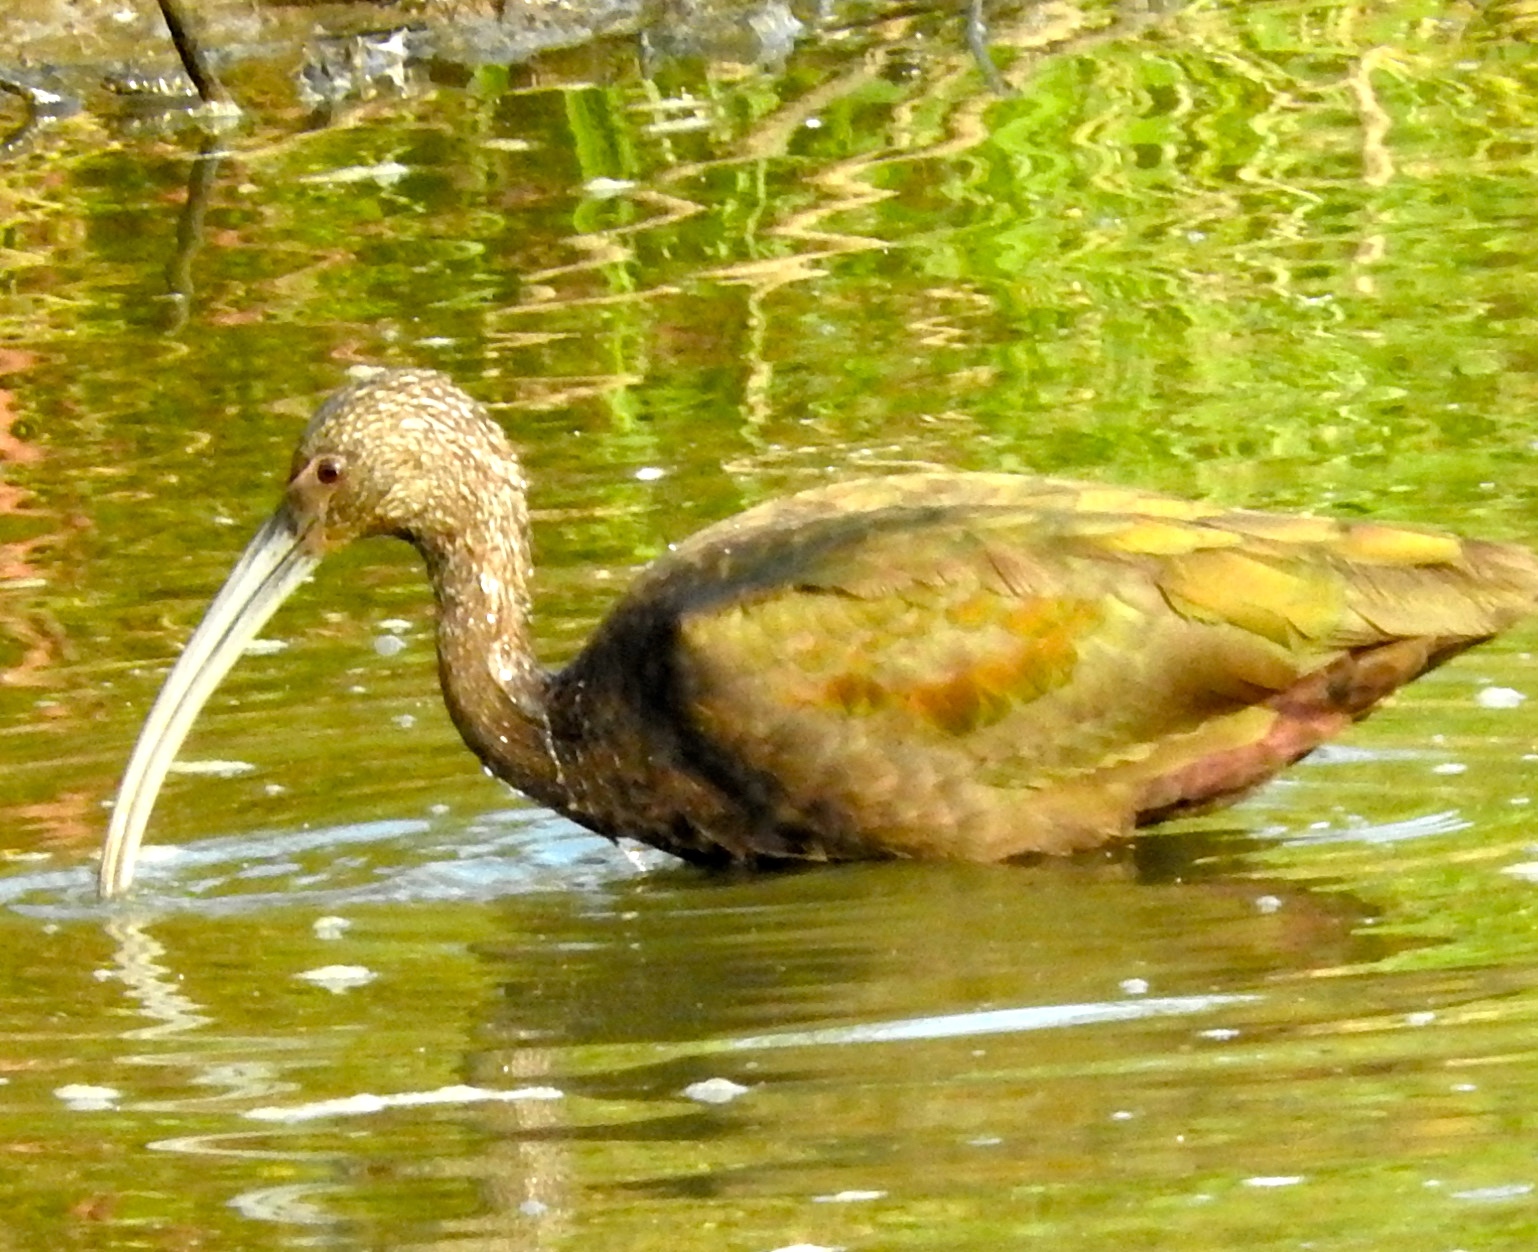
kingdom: Animalia
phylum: Chordata
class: Aves
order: Pelecaniformes
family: Threskiornithidae
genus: Plegadis
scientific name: Plegadis chihi
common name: White-faced ibis
